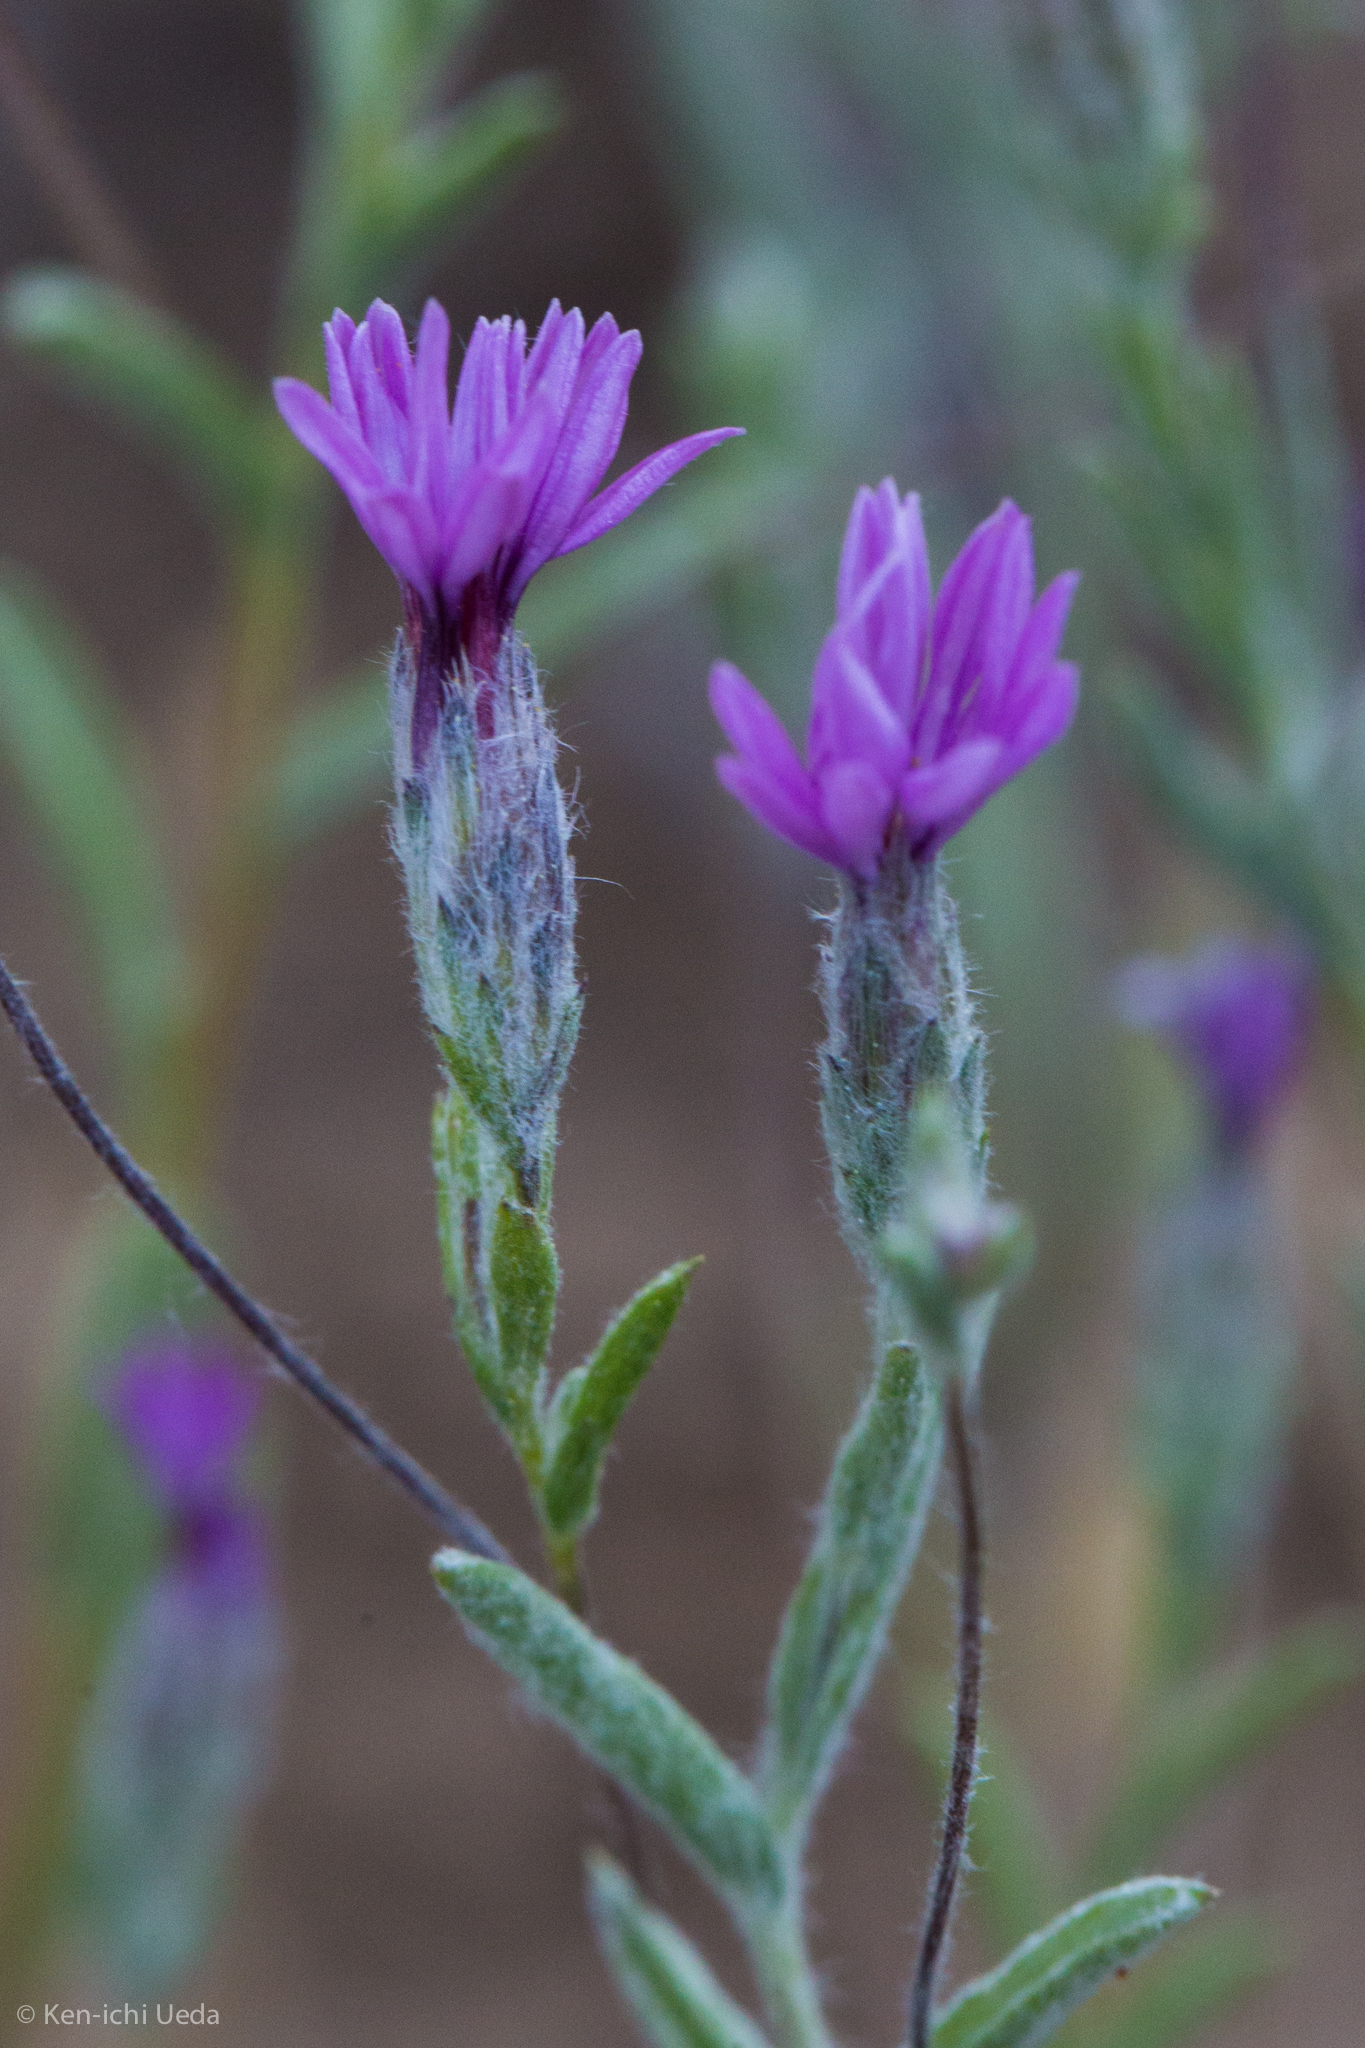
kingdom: Plantae
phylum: Tracheophyta
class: Magnoliopsida
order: Asterales
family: Asteraceae
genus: Lessingia
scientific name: Lessingia leptoclada
